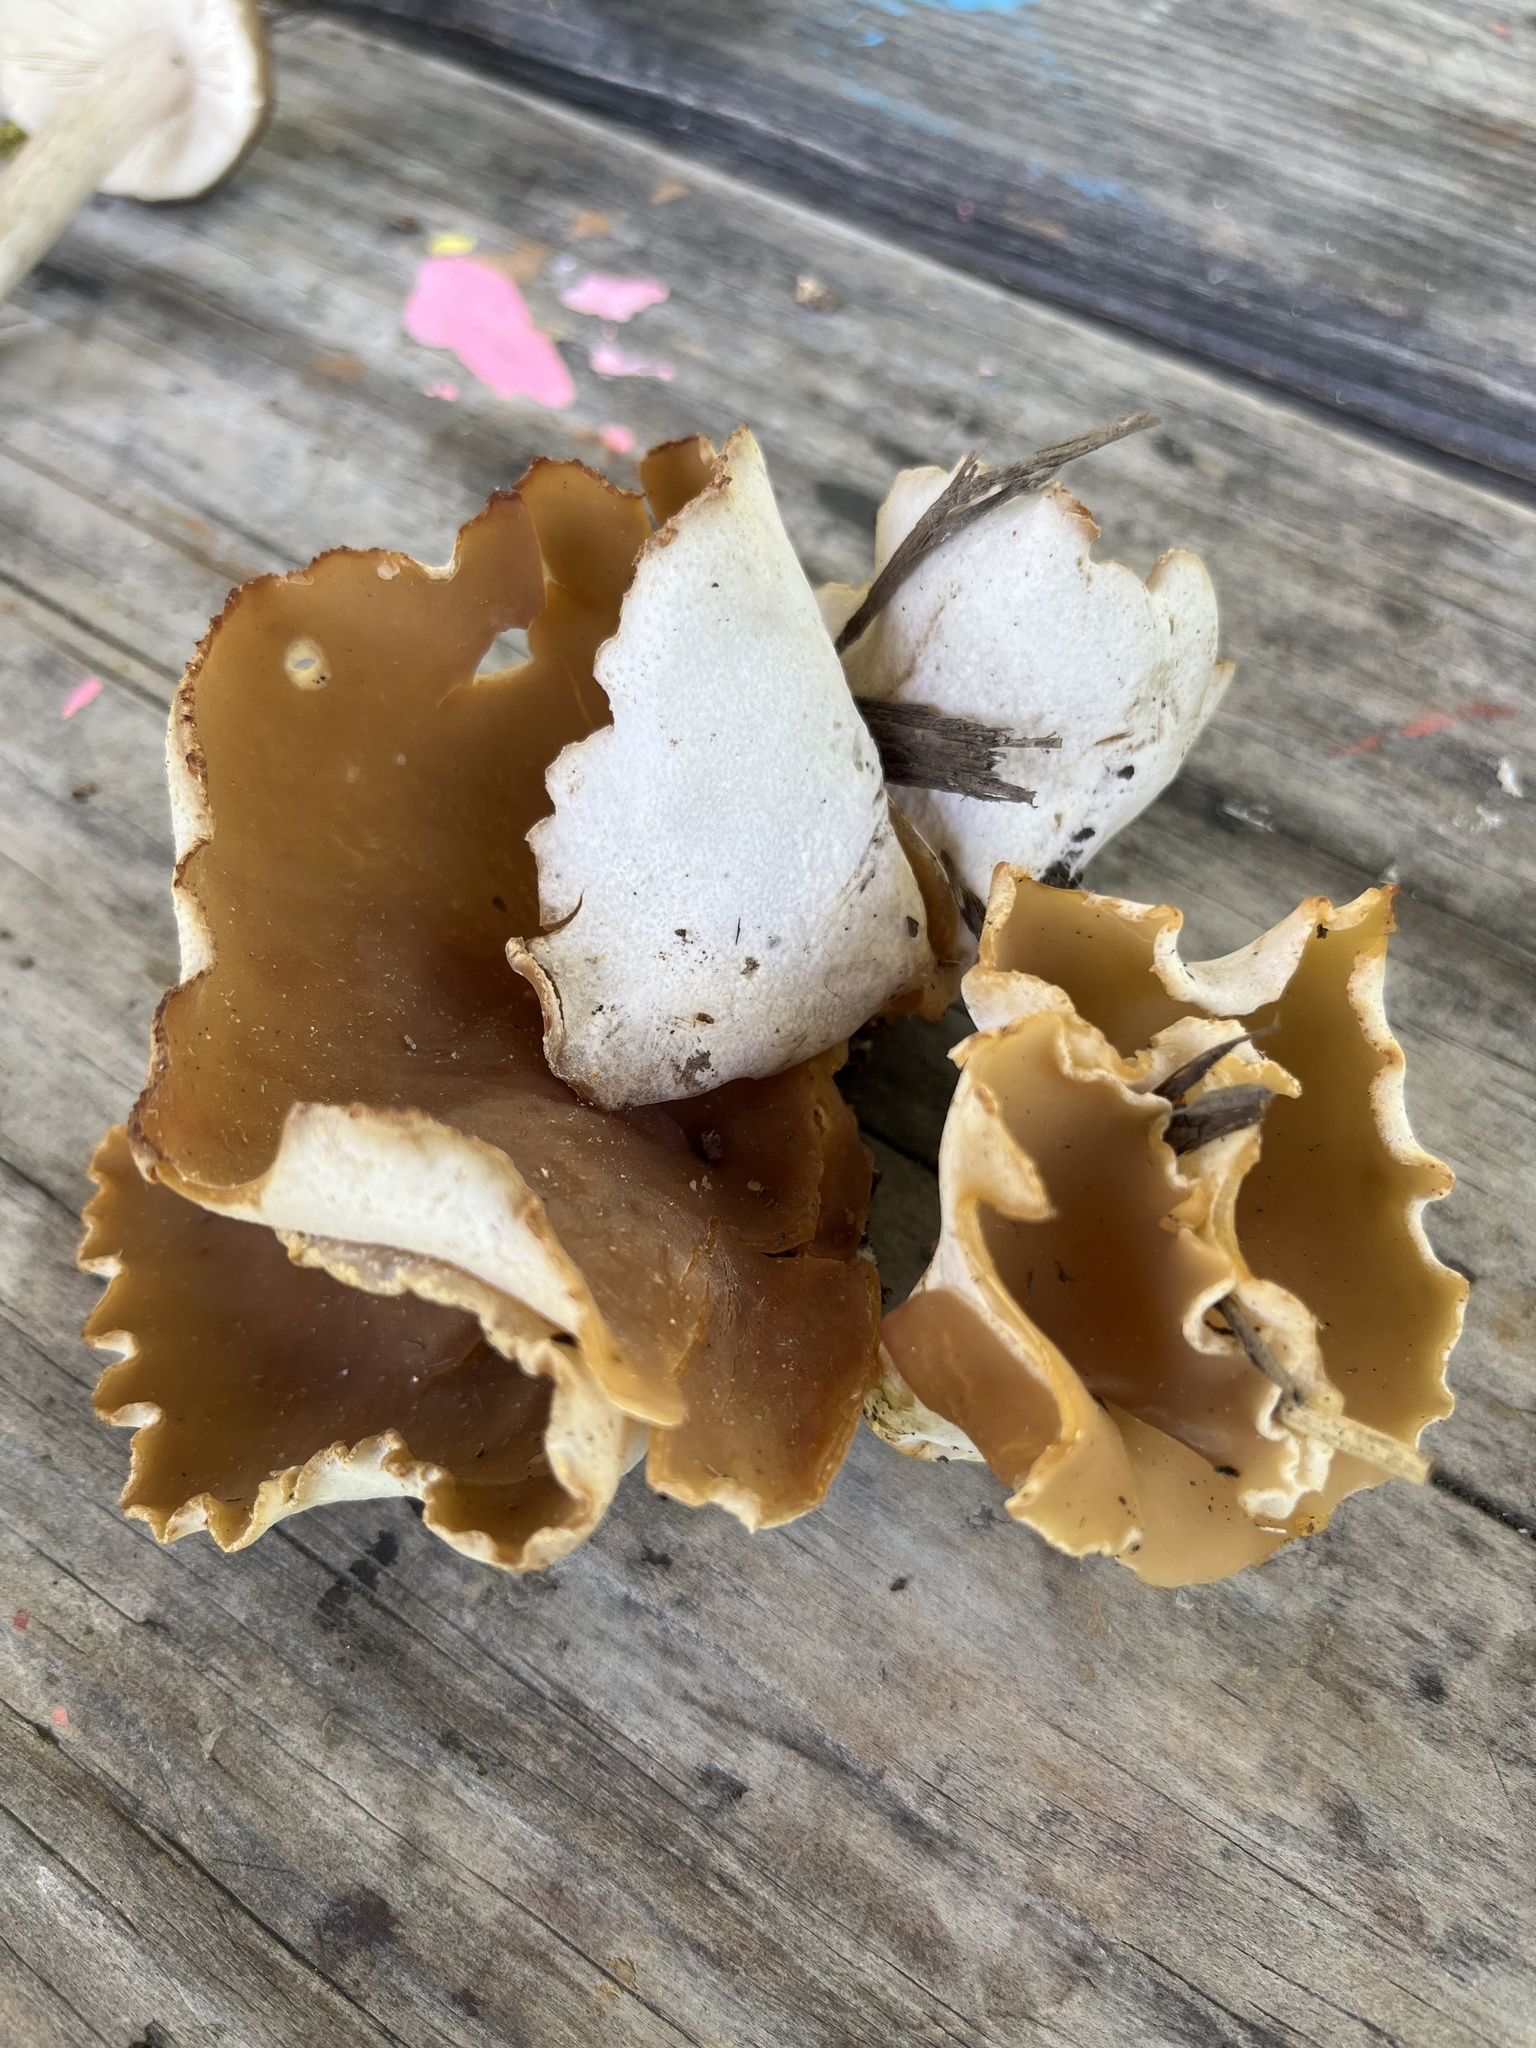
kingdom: Fungi
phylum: Ascomycota
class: Pezizomycetes
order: Pezizales
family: Pezizaceae
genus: Peziza
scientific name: Peziza vesiculosa
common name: Blistered cup
